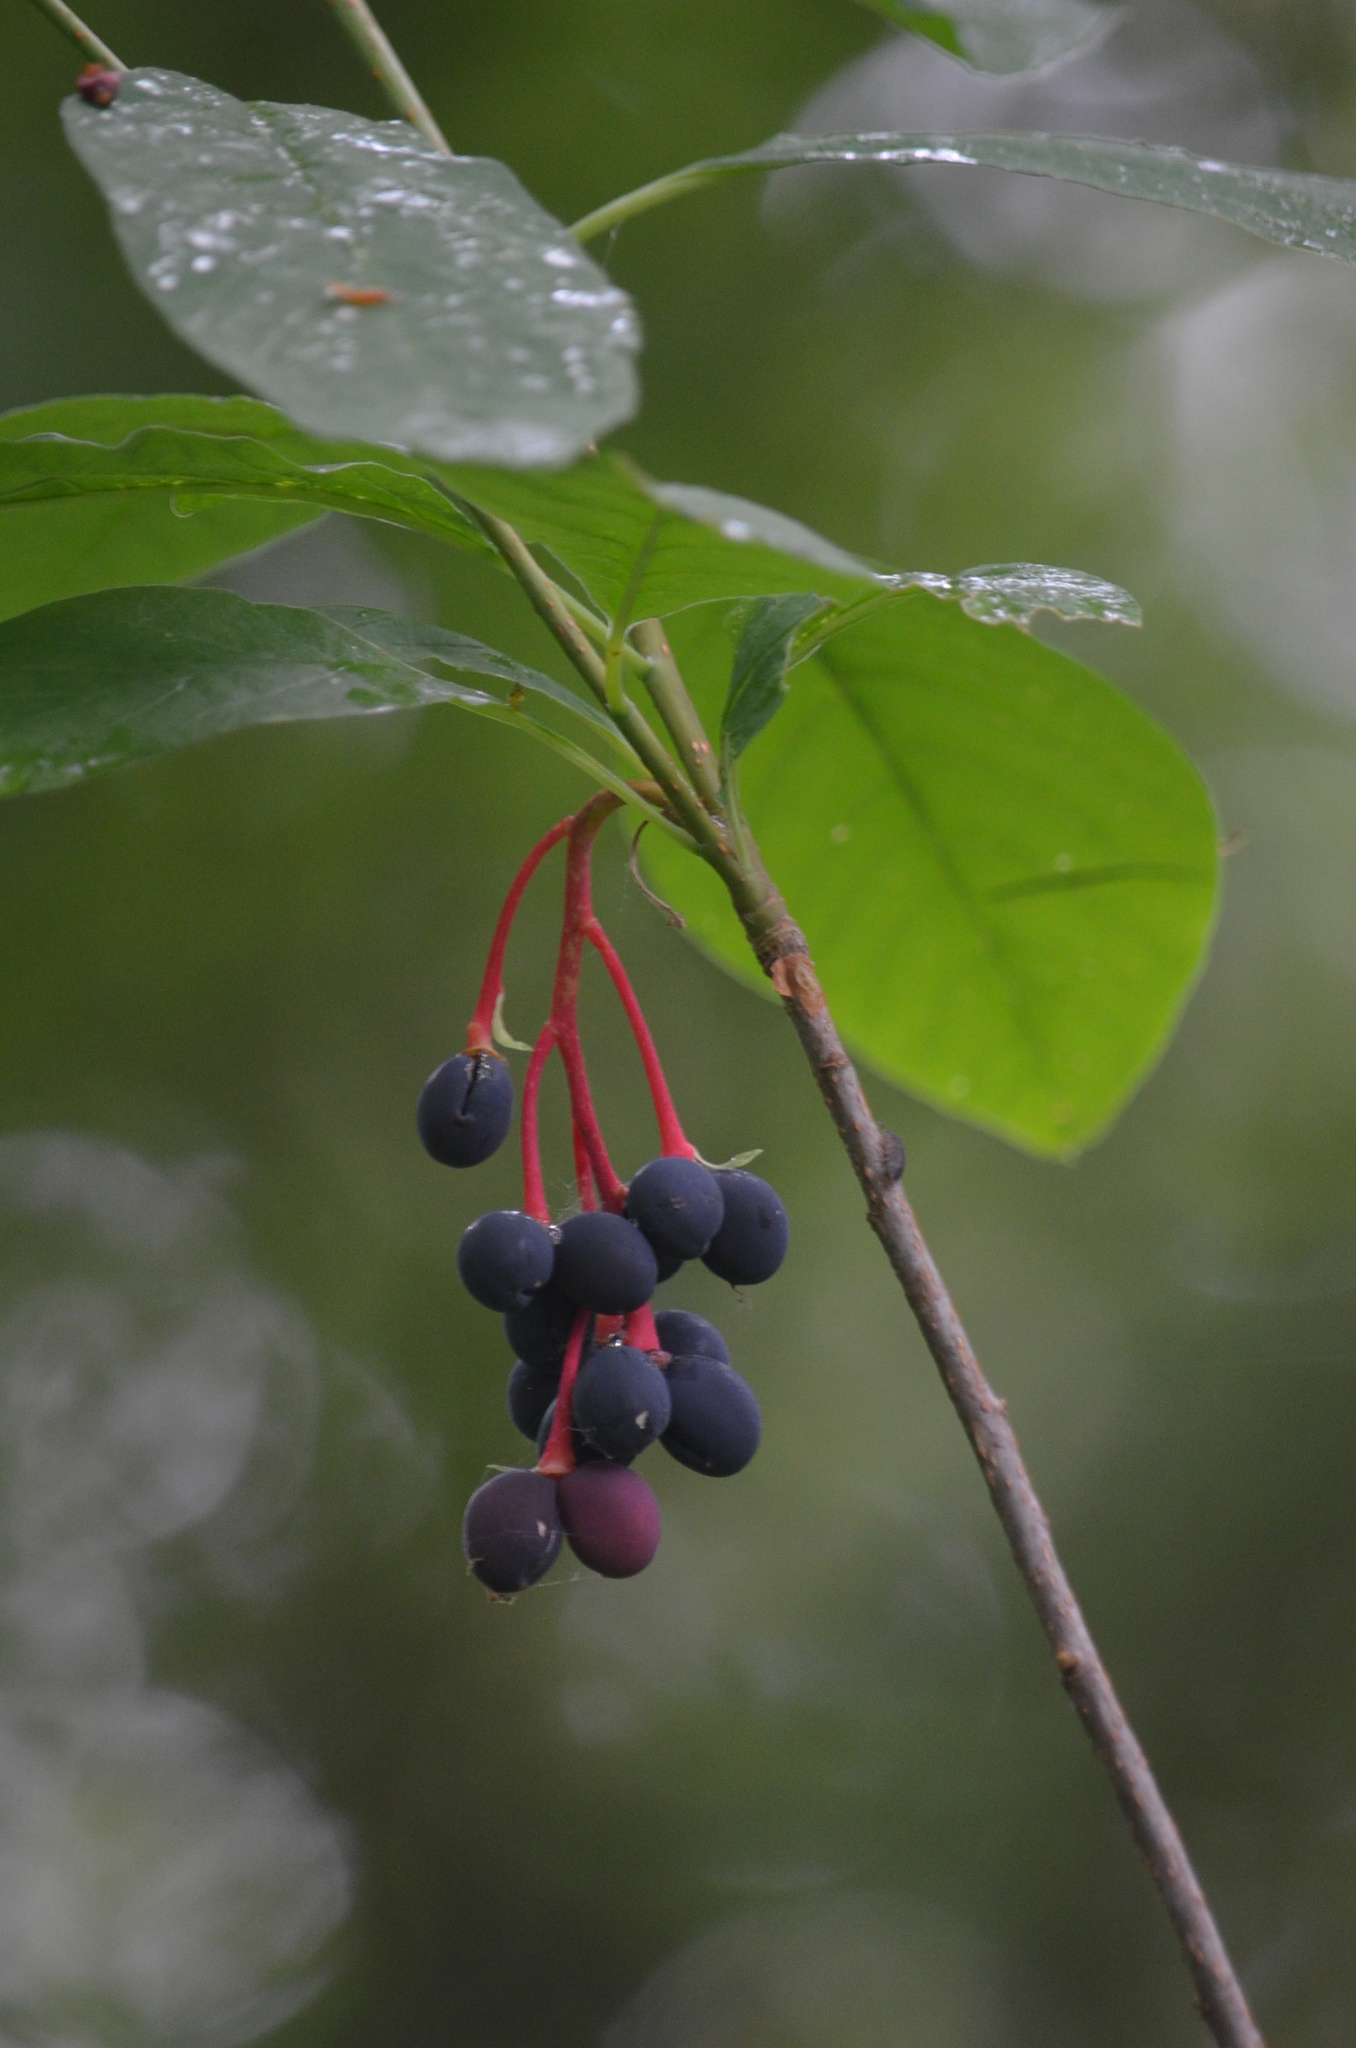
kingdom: Plantae
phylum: Tracheophyta
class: Magnoliopsida
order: Rosales
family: Rosaceae
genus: Oemleria
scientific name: Oemleria cerasiformis
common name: Osoberry
